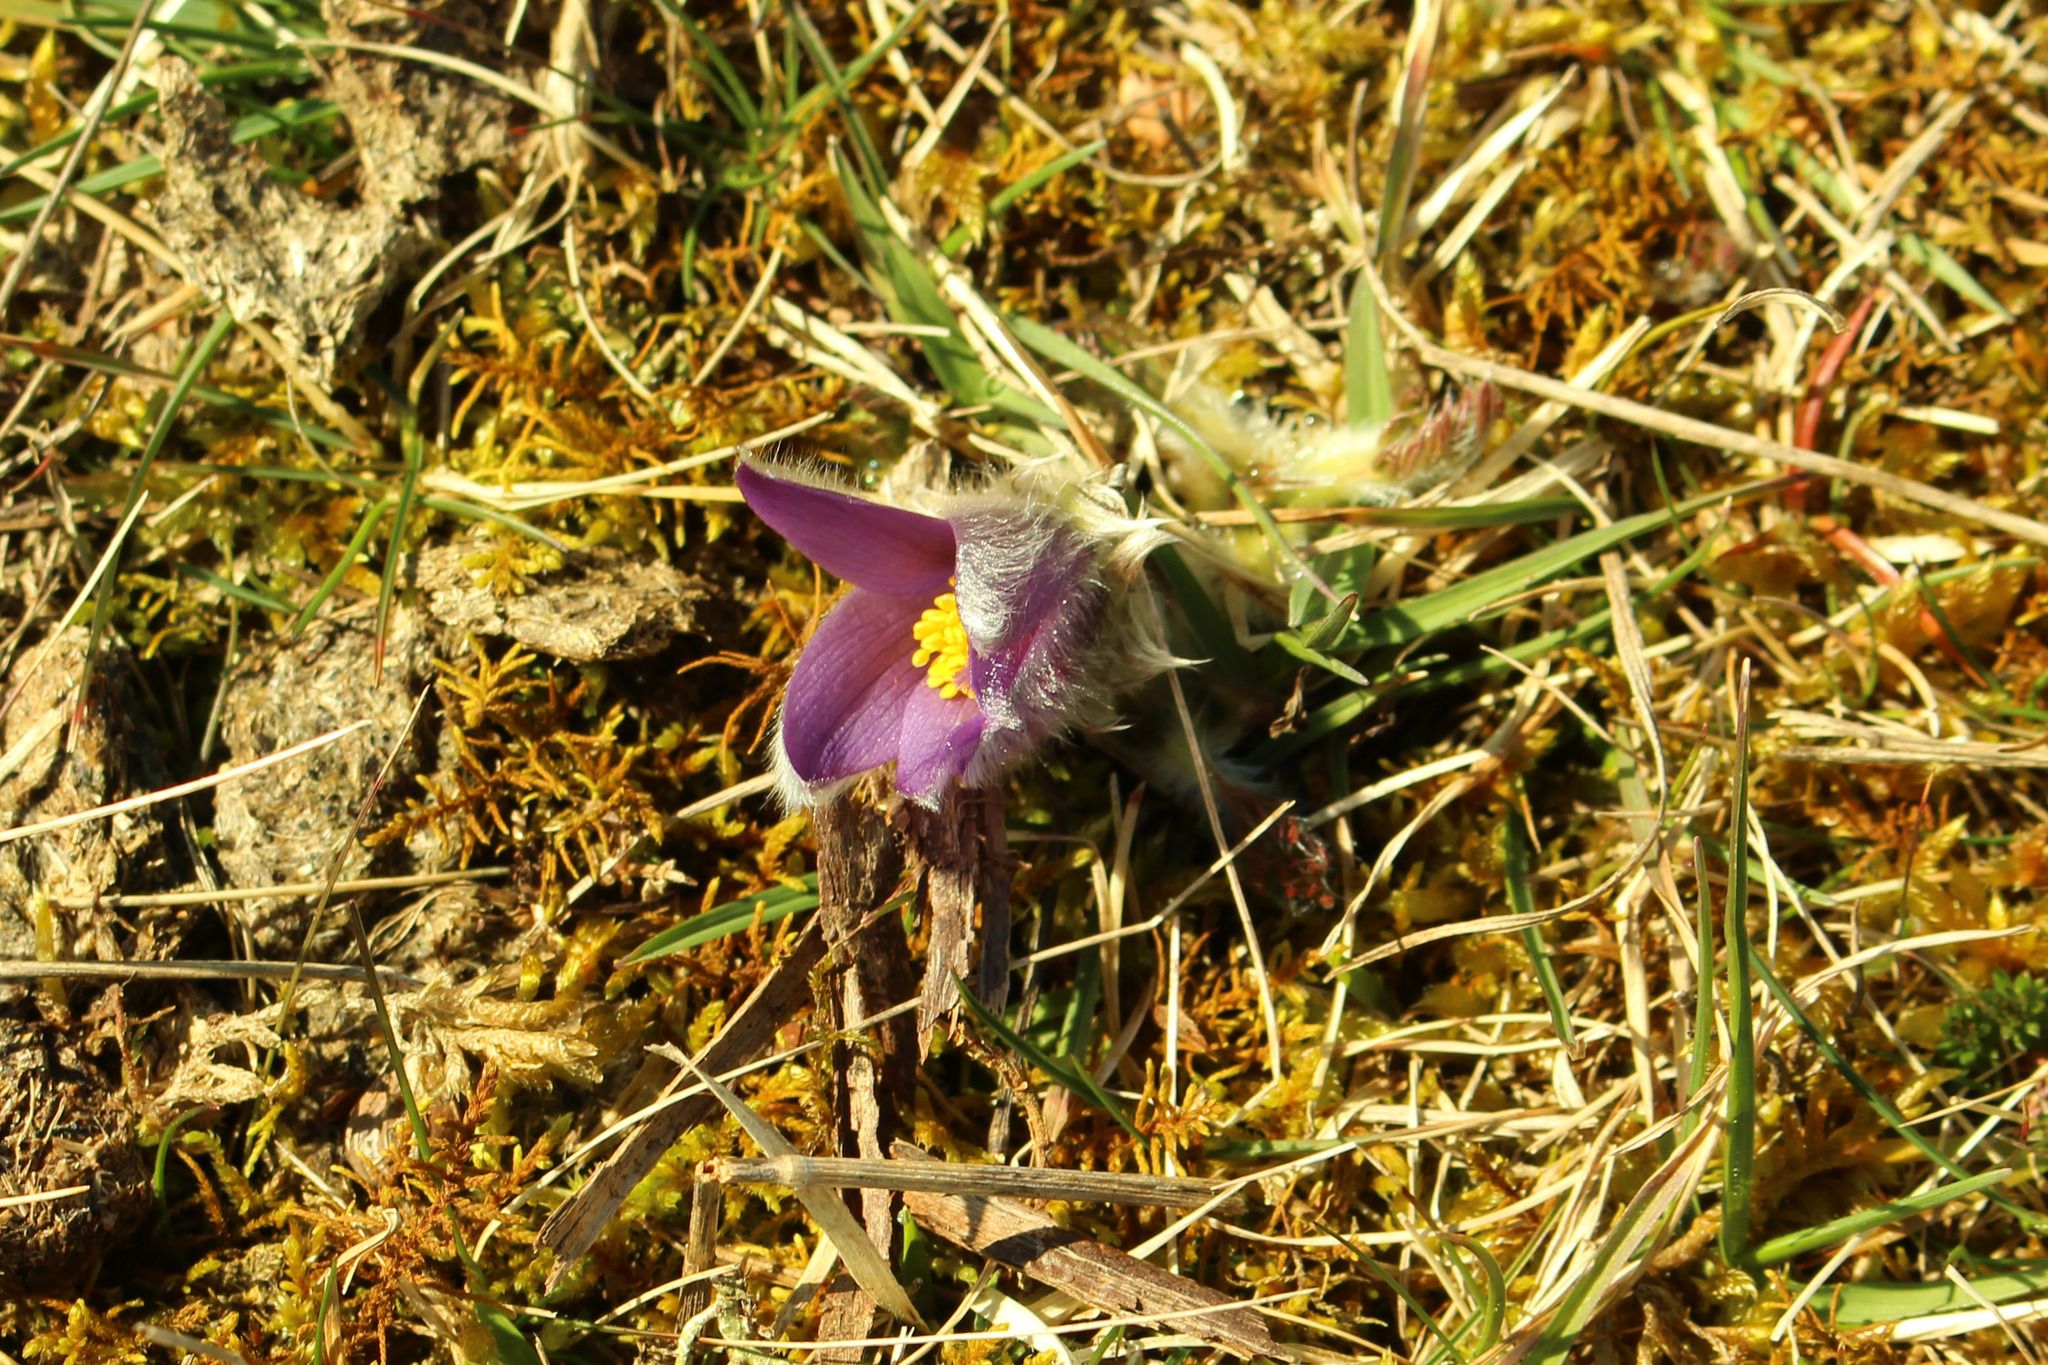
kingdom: Plantae
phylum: Tracheophyta
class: Magnoliopsida
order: Ranunculales
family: Ranunculaceae
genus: Pulsatilla
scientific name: Pulsatilla vulgaris
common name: Pasqueflower
